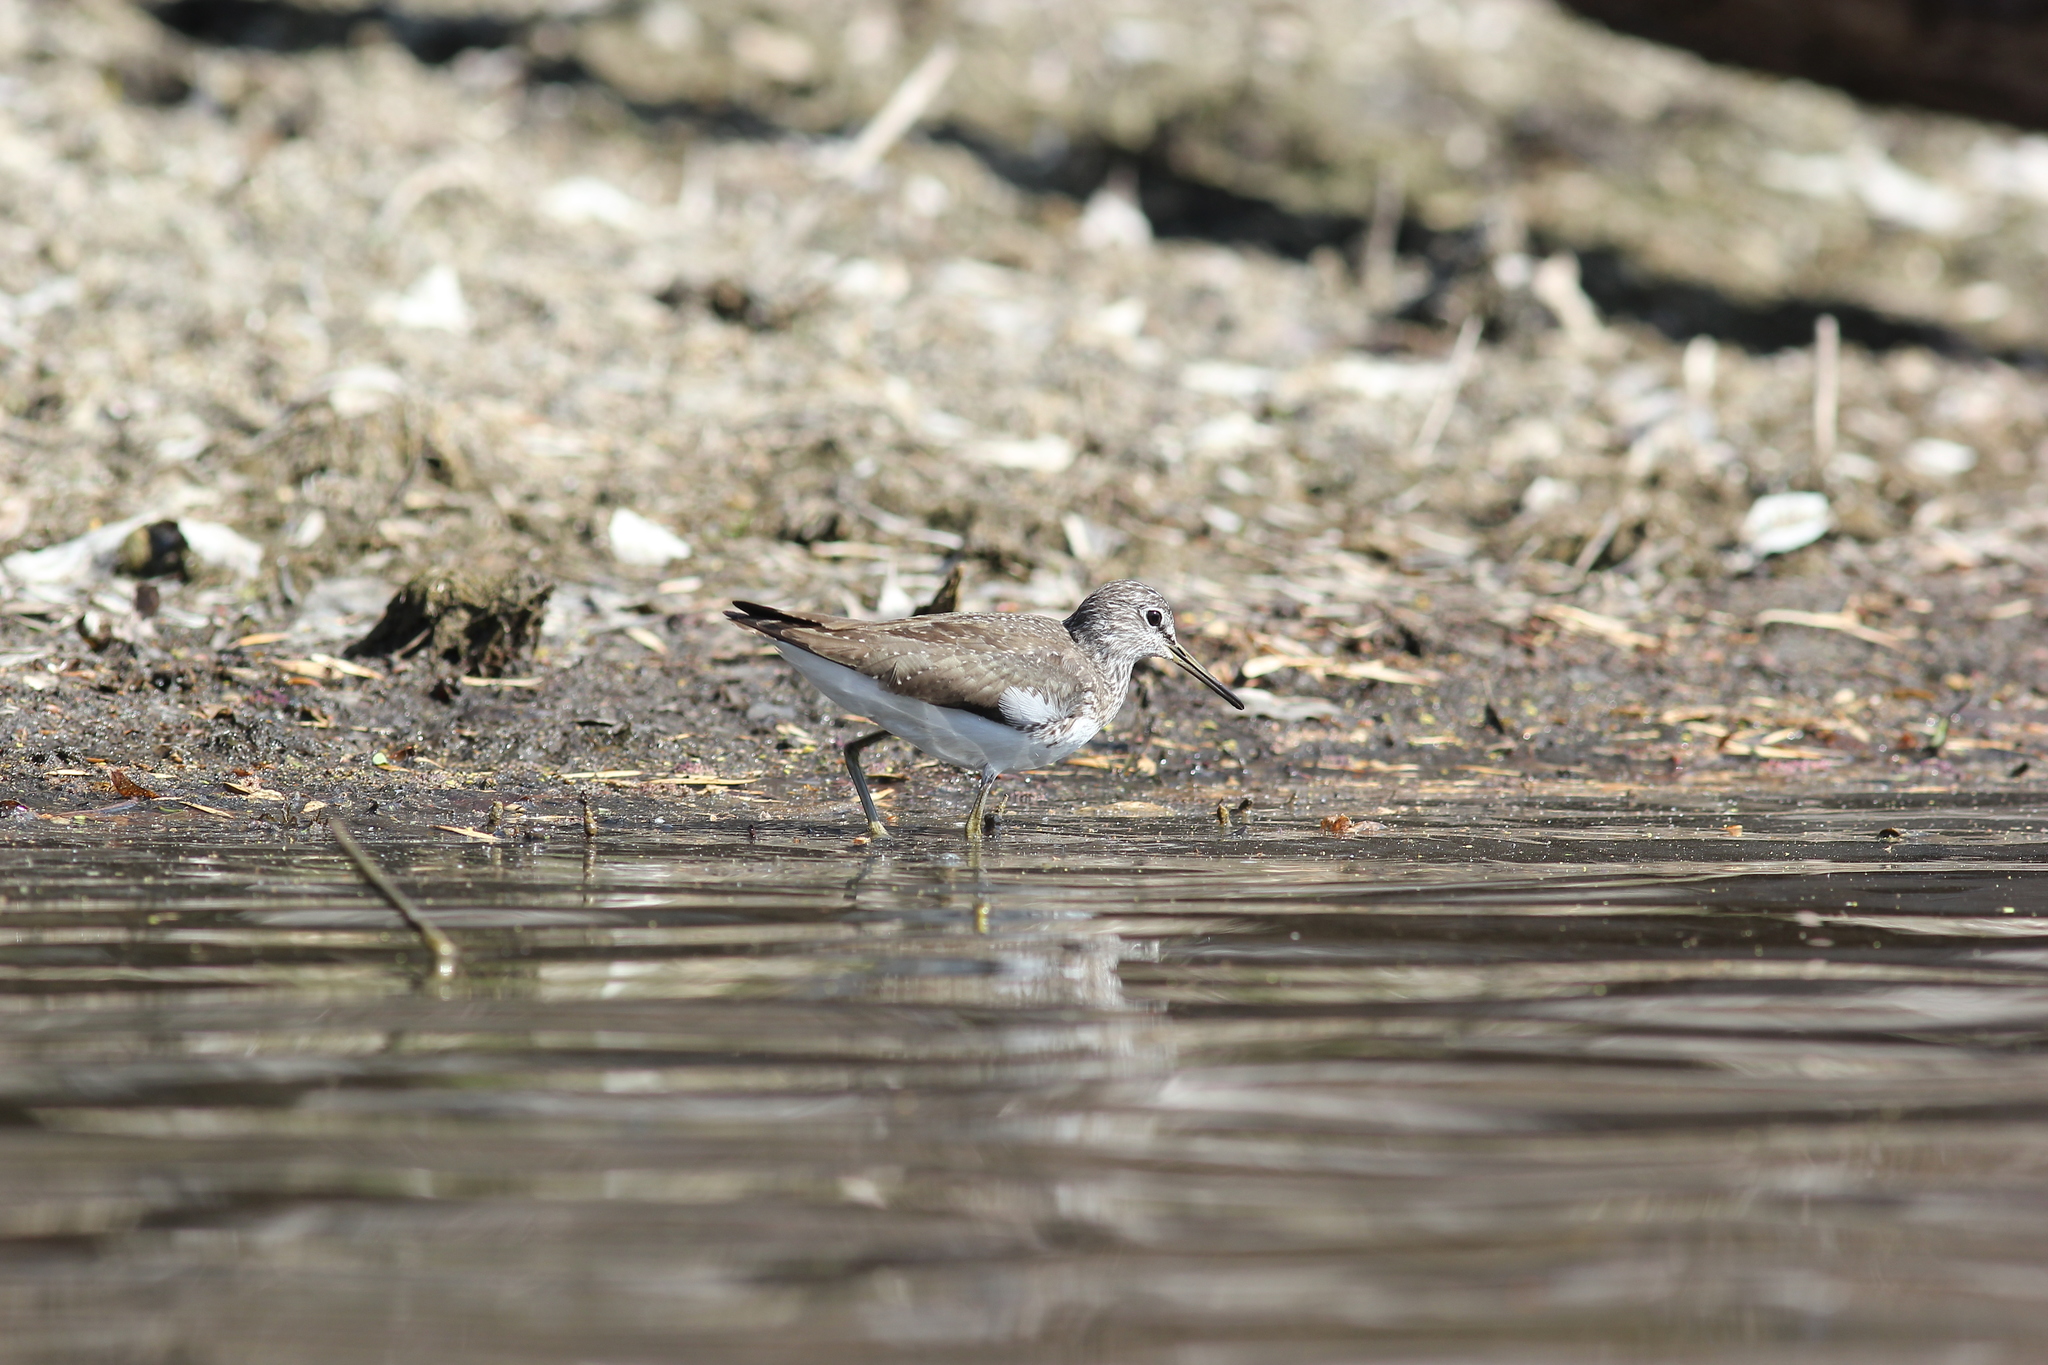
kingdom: Animalia
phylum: Chordata
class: Aves
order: Charadriiformes
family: Scolopacidae
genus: Tringa
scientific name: Tringa ochropus
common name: Green sandpiper
